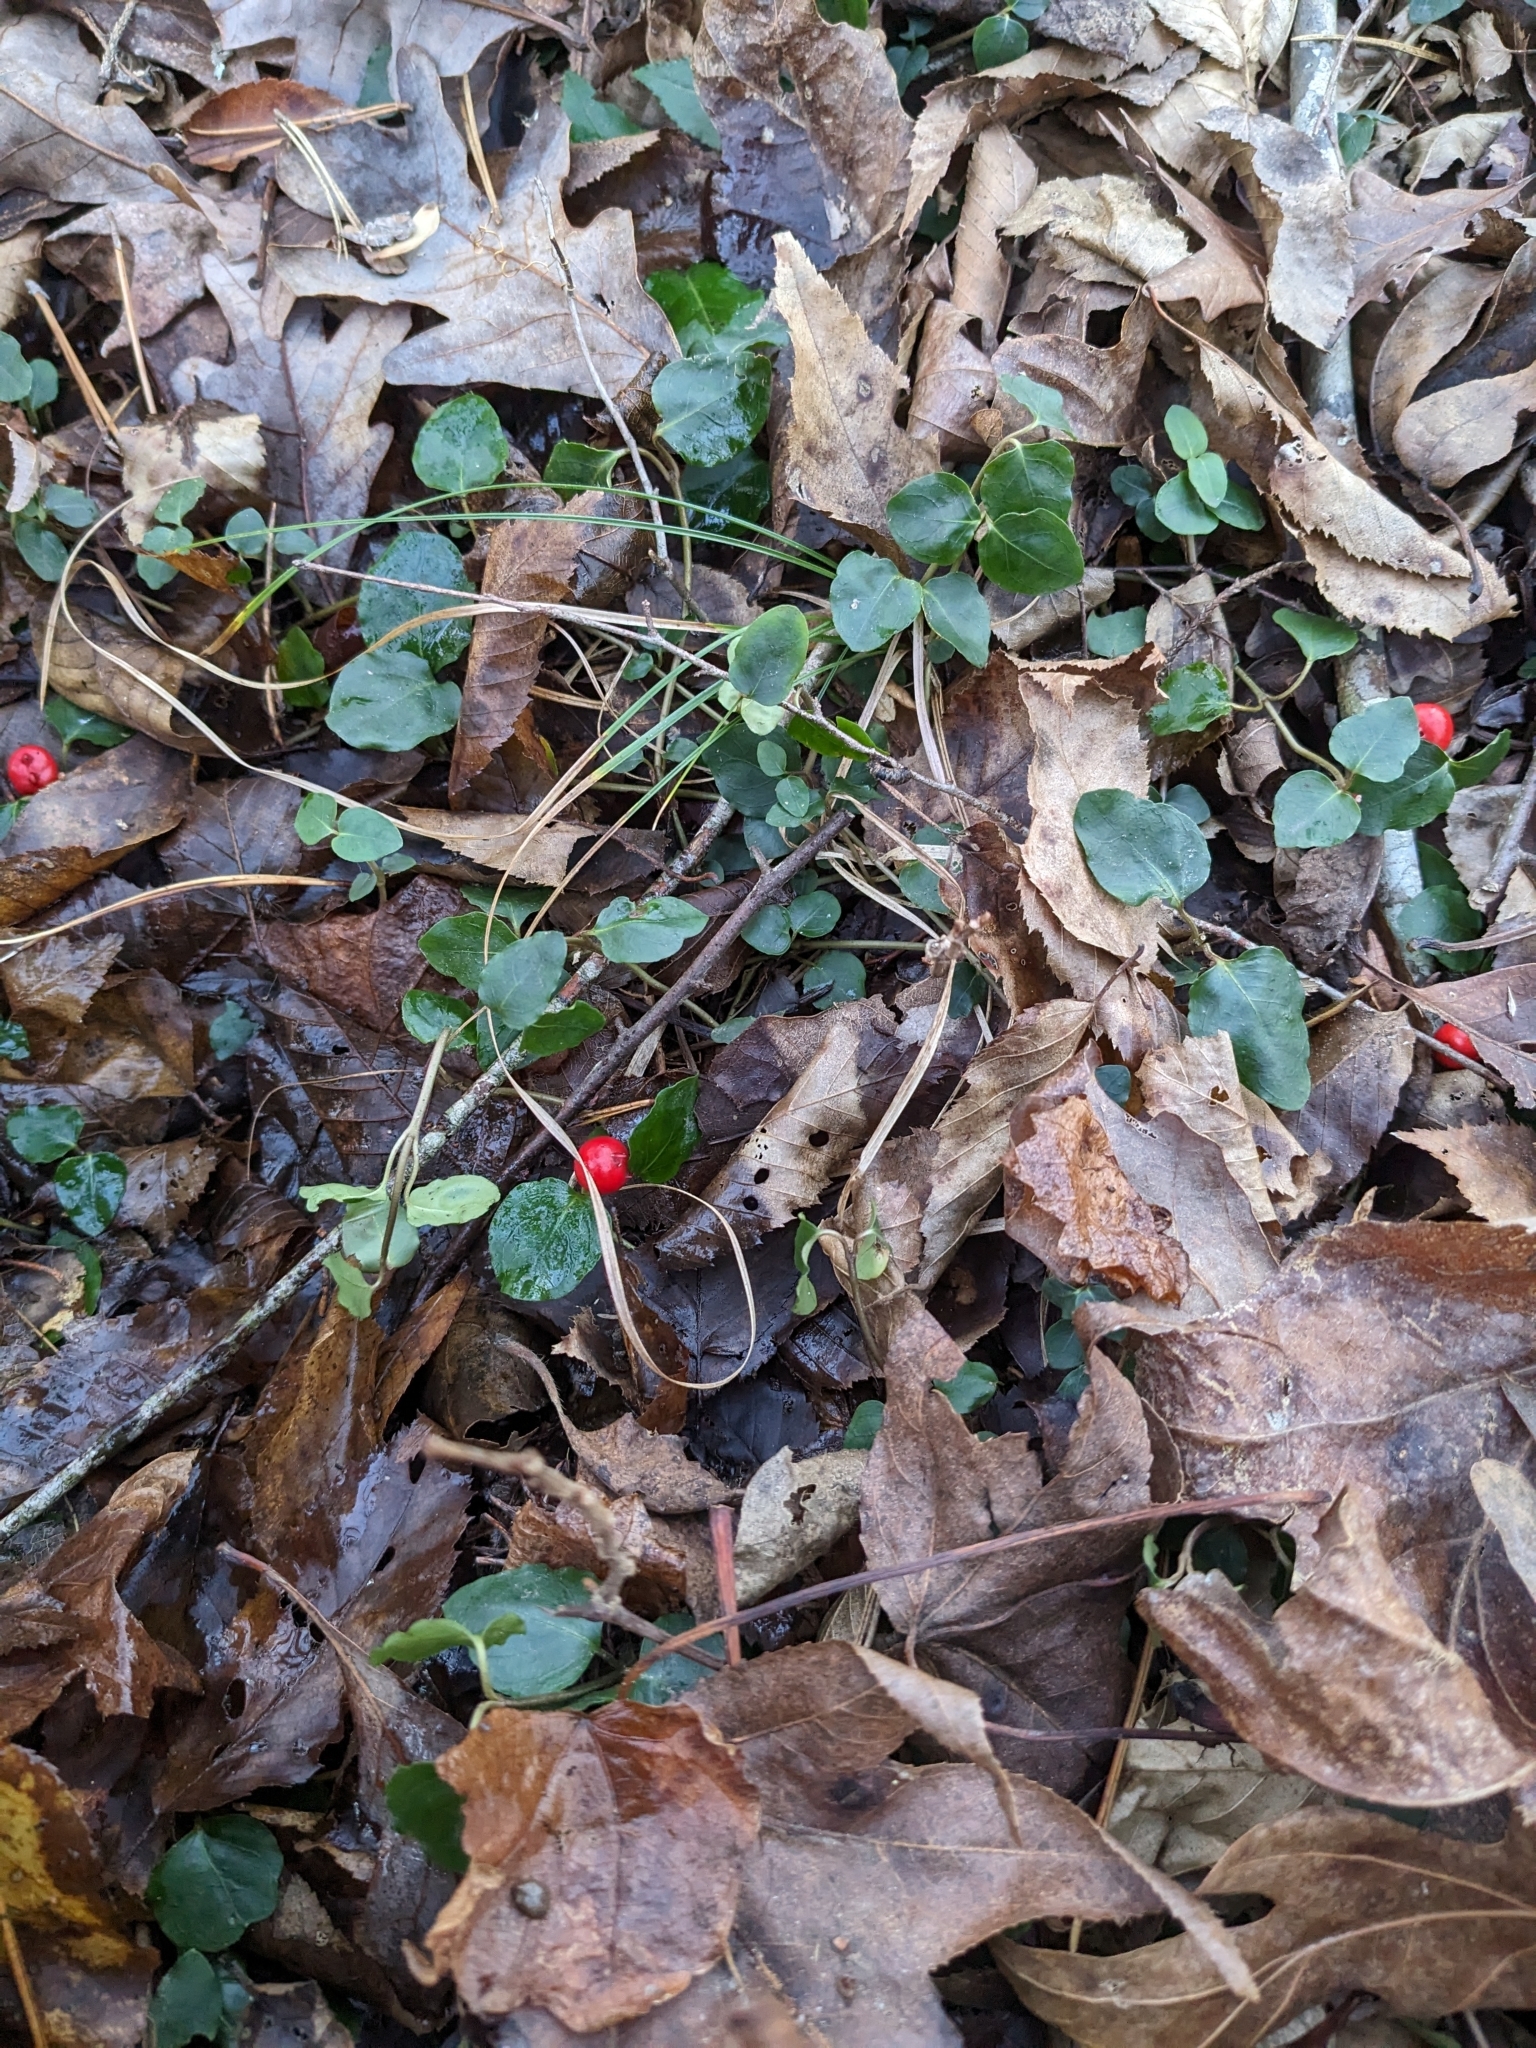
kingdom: Plantae
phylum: Tracheophyta
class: Magnoliopsida
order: Gentianales
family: Rubiaceae
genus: Mitchella
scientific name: Mitchella repens
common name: Partridge-berry
